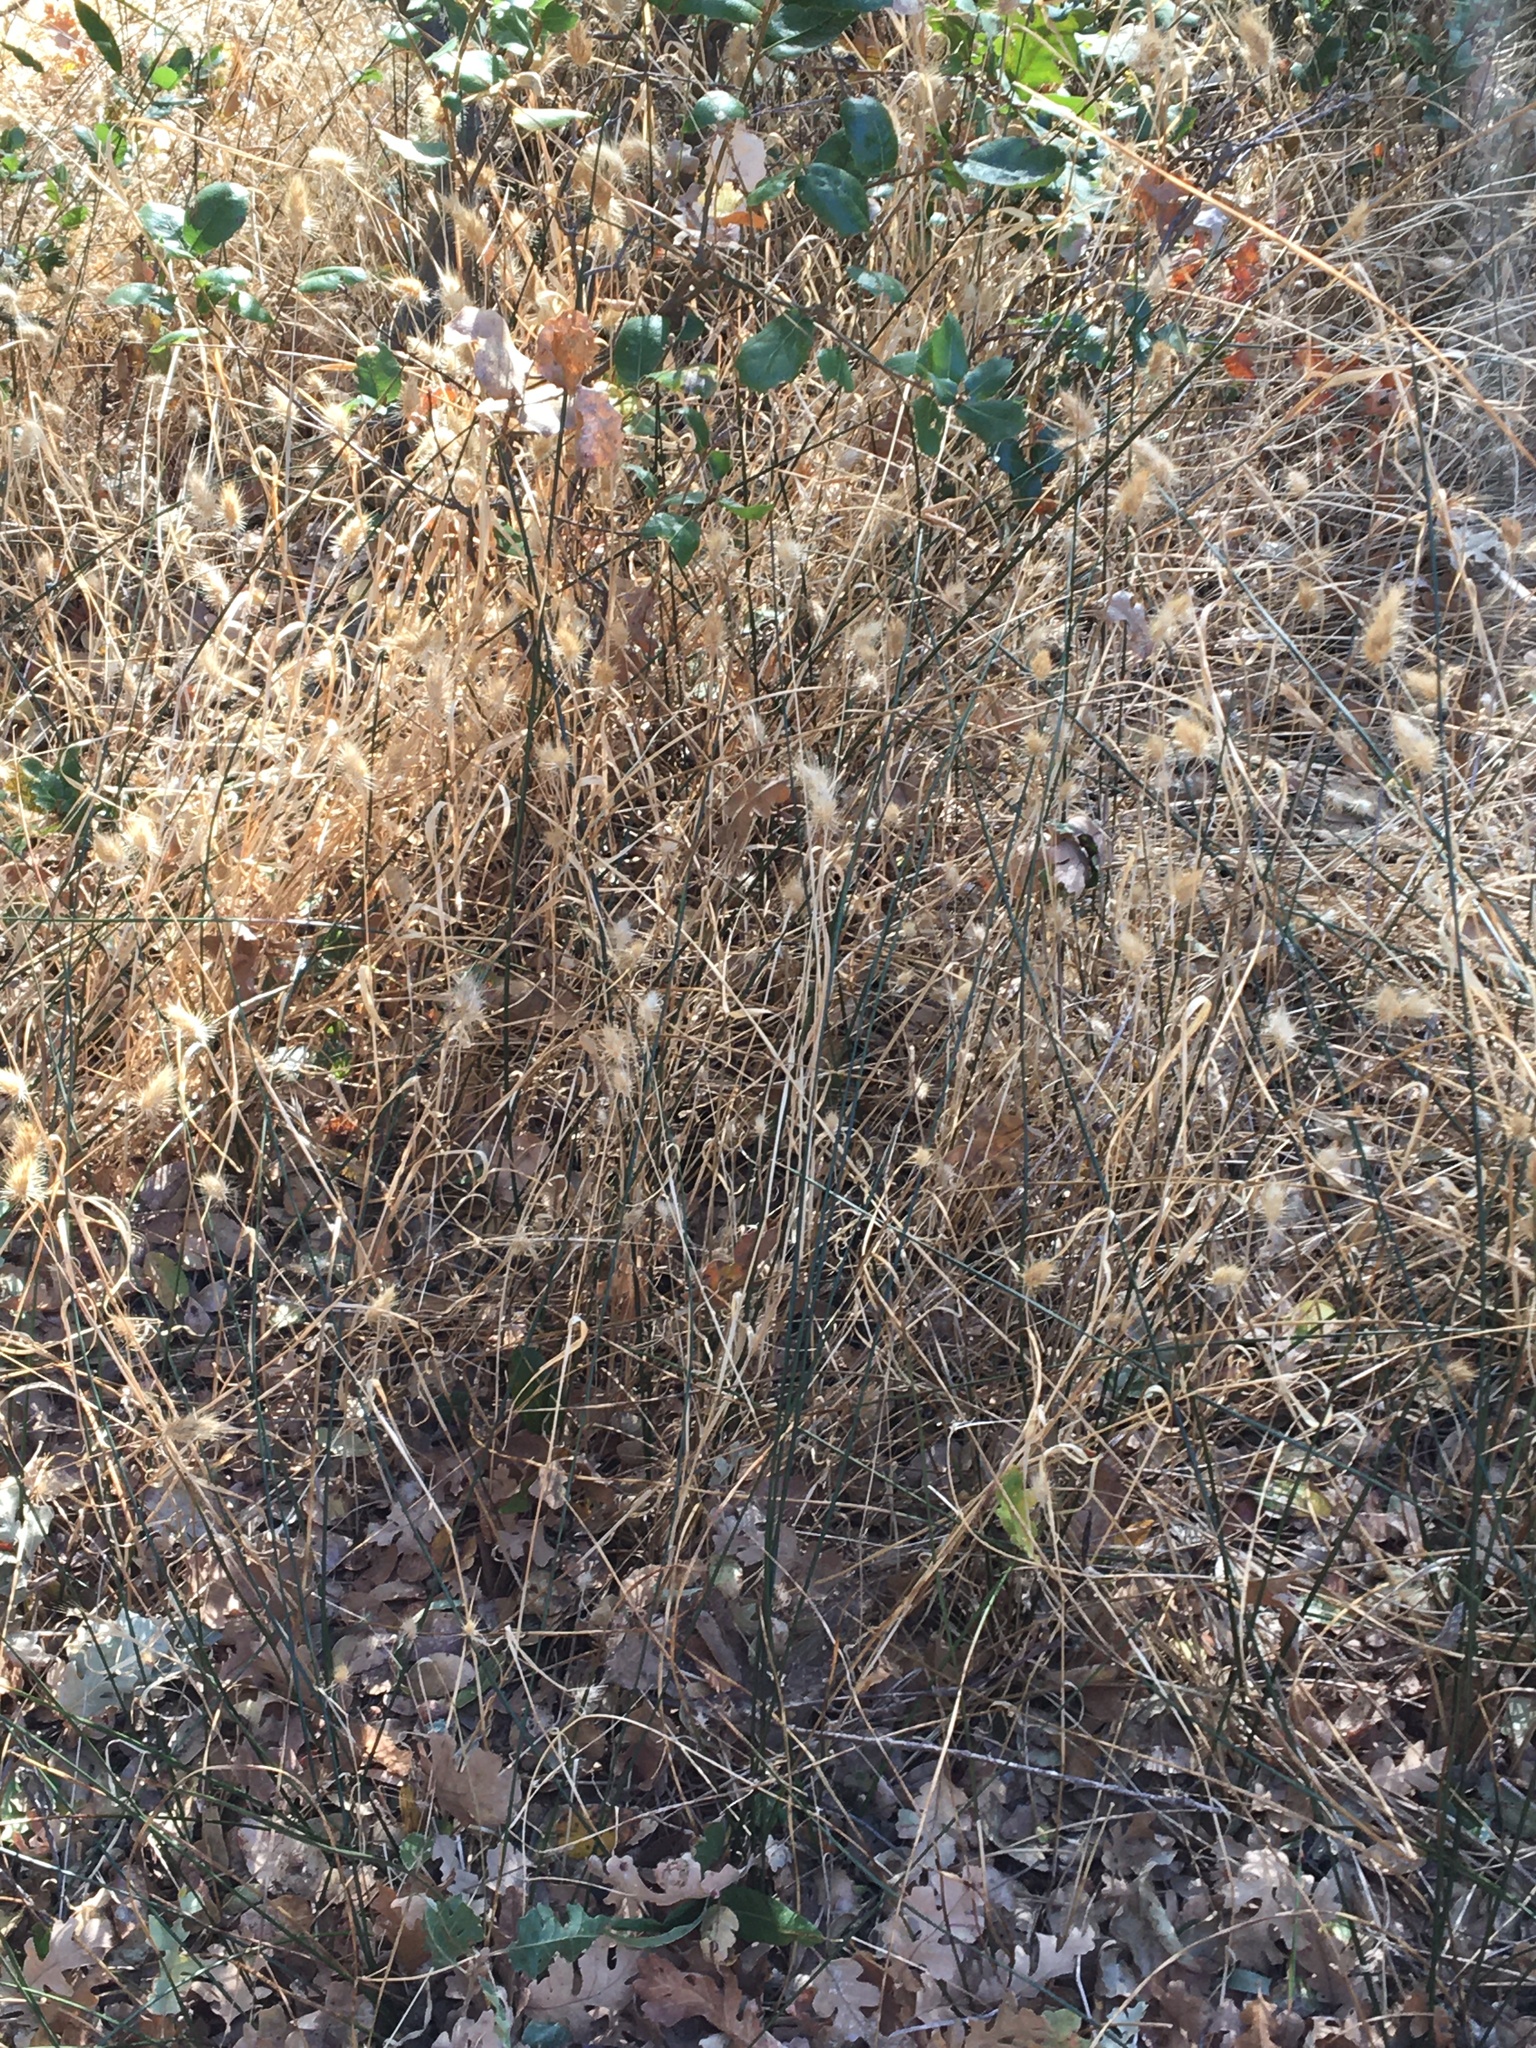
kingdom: Plantae
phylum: Tracheophyta
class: Liliopsida
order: Poales
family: Poaceae
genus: Cynosurus
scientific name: Cynosurus echinatus
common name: Rough dog's-tail
